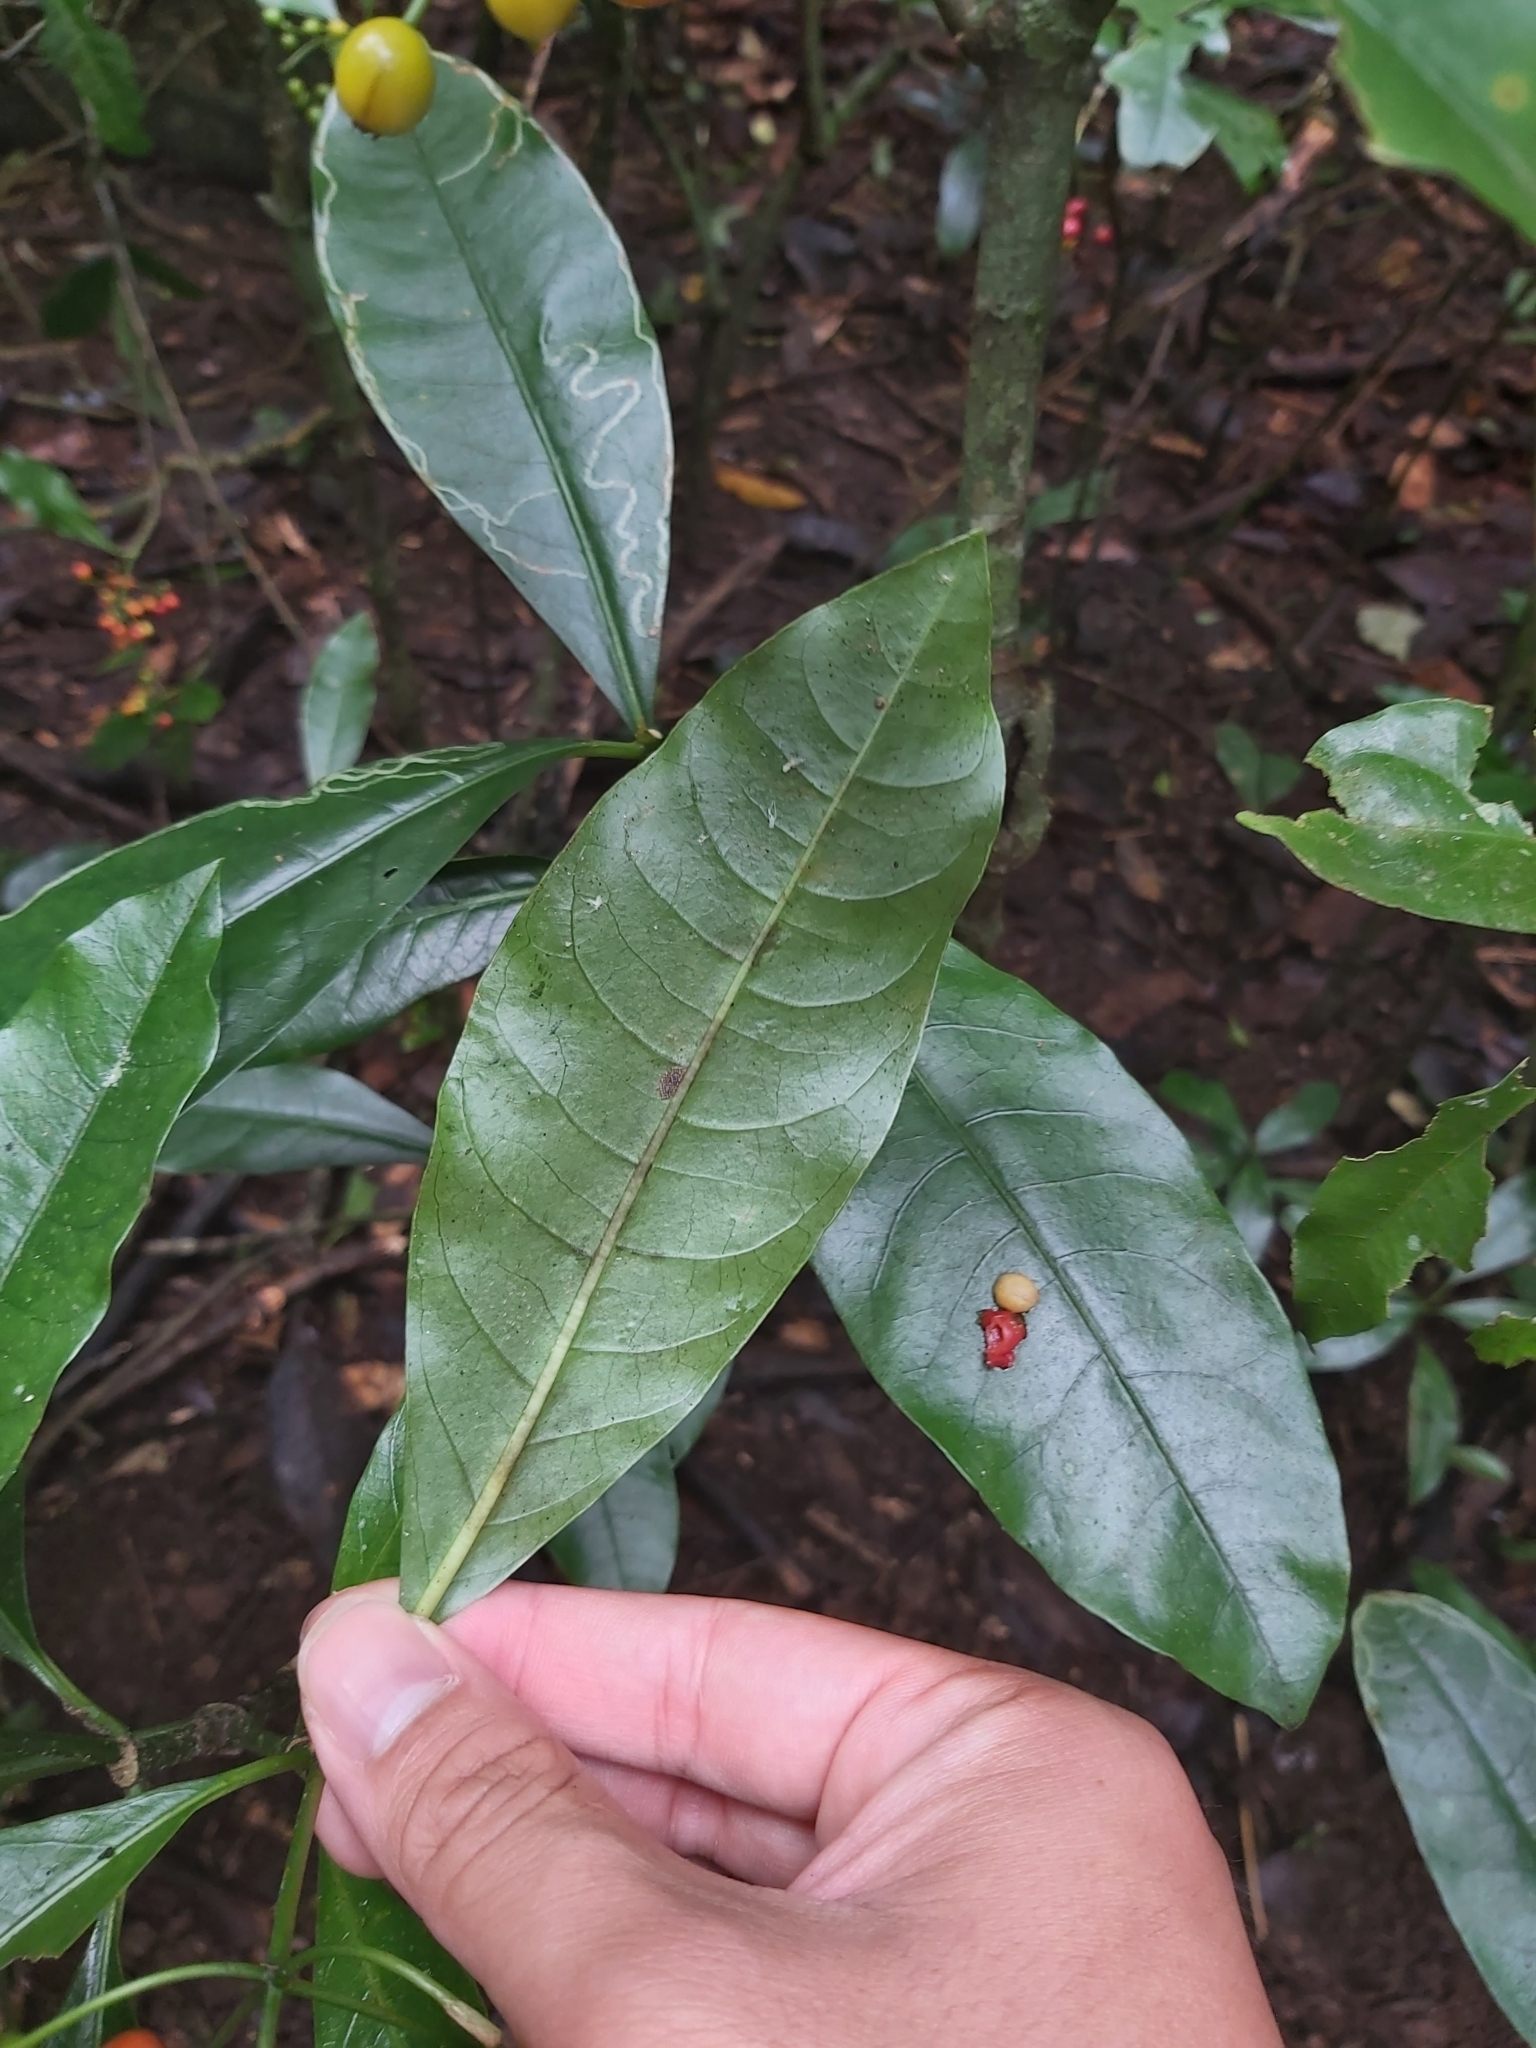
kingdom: Plantae
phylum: Tracheophyta
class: Magnoliopsida
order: Gentianales
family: Rubiaceae
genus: Eumachia
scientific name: Eumachia frutescens
